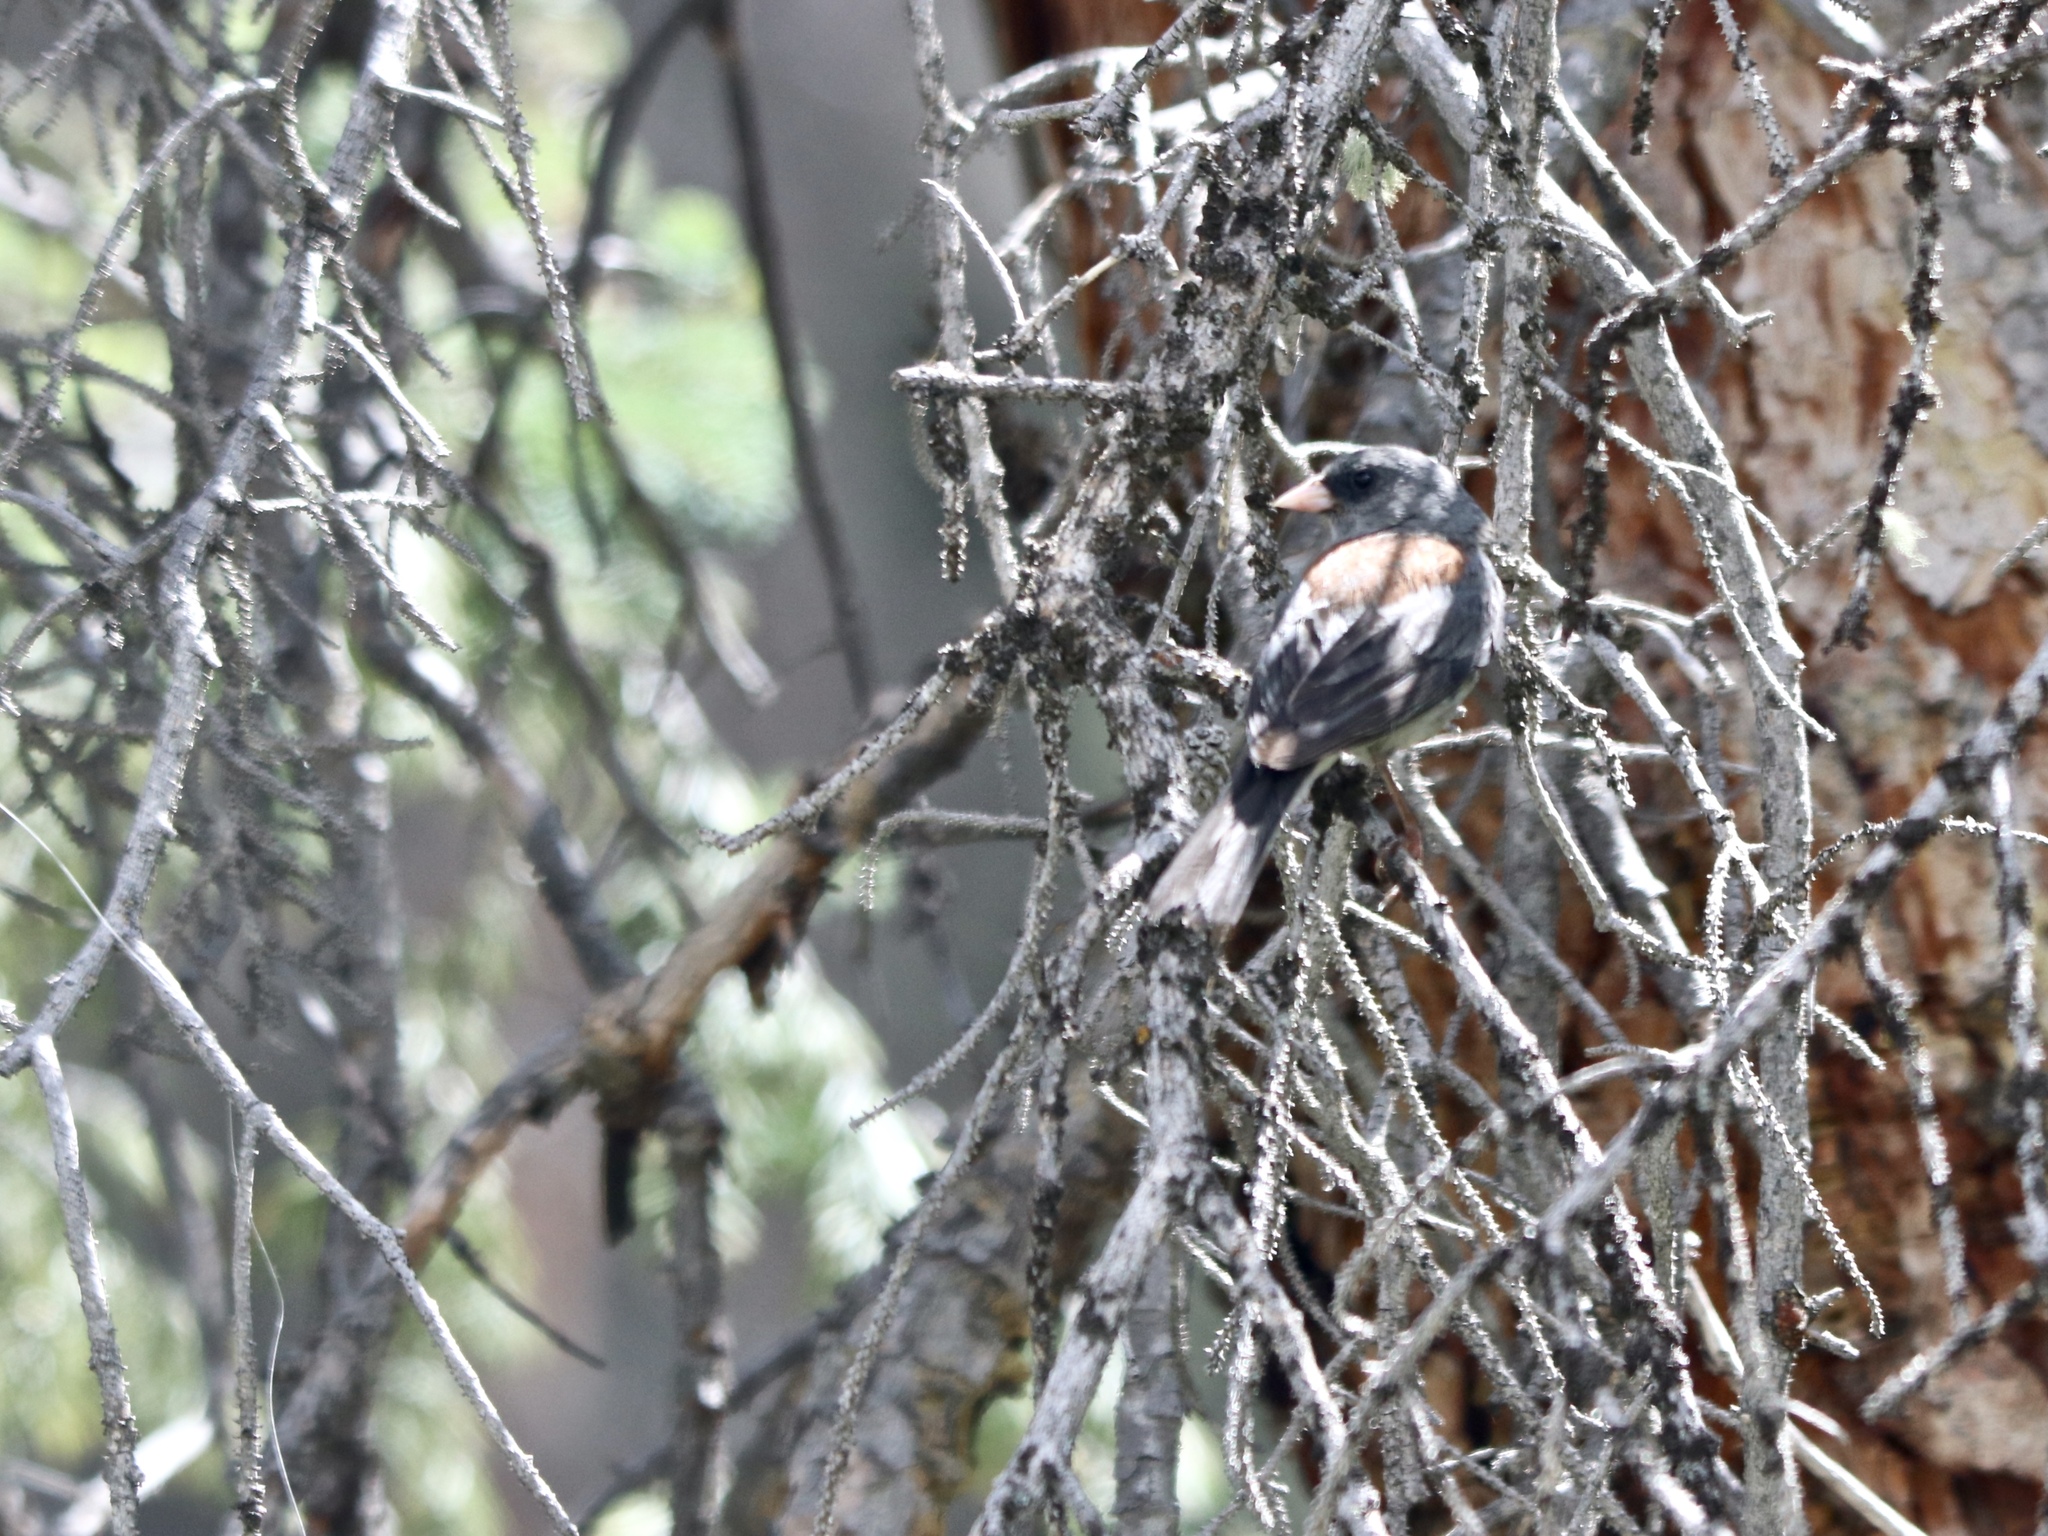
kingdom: Animalia
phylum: Chordata
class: Aves
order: Passeriformes
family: Passerellidae
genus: Junco
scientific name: Junco hyemalis
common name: Dark-eyed junco
